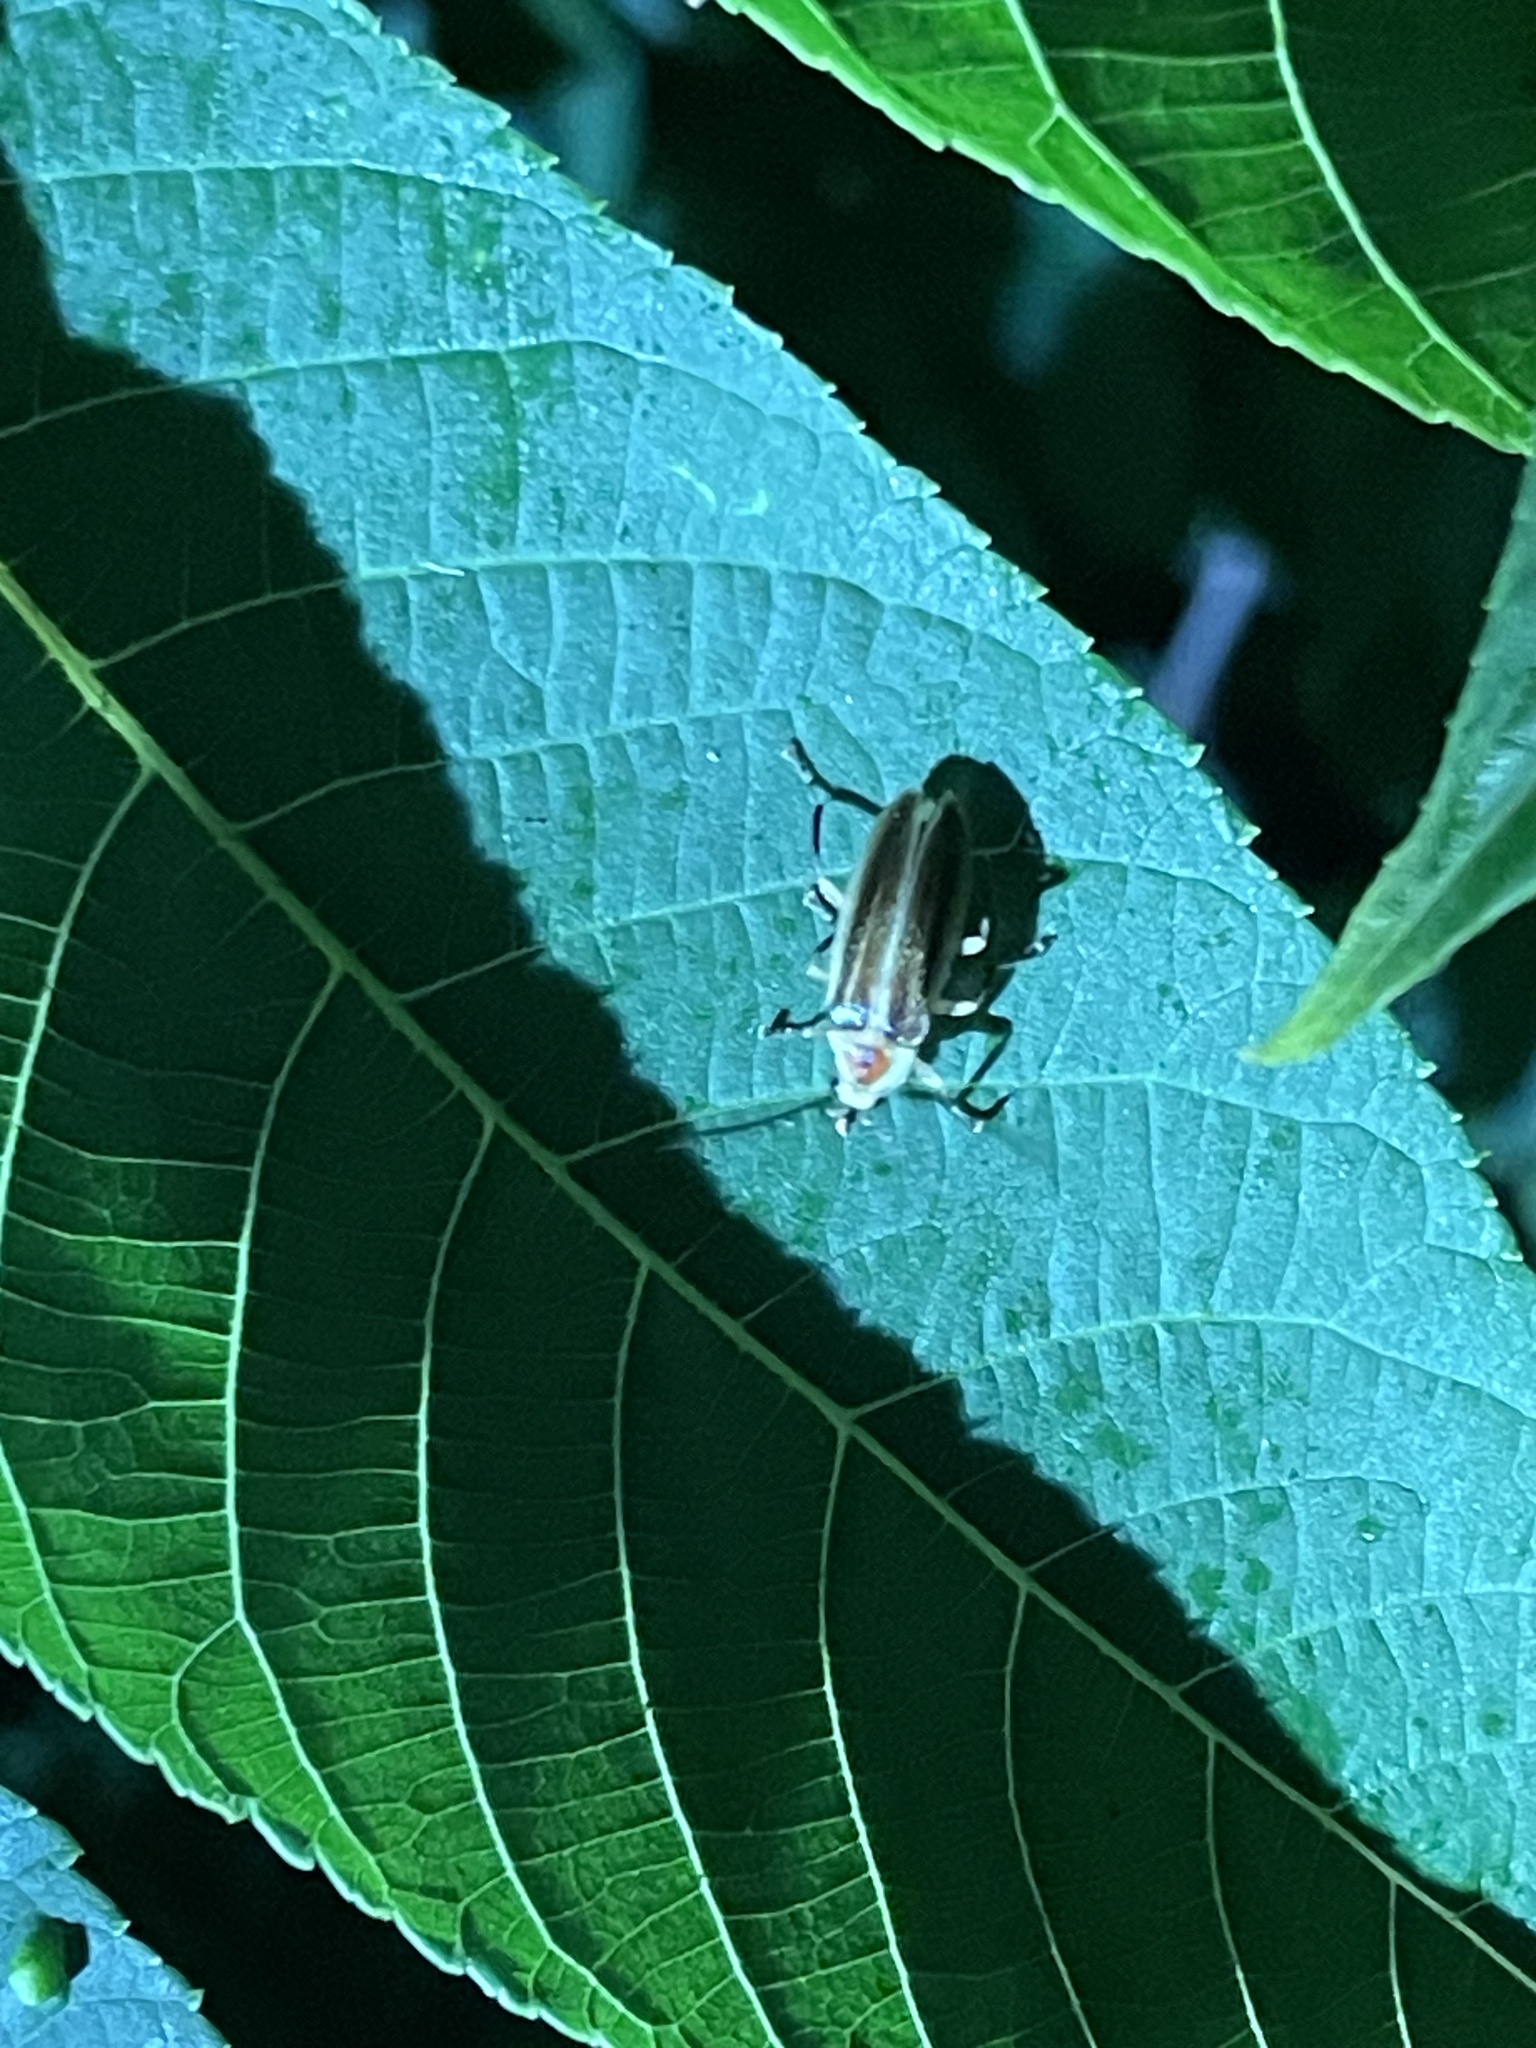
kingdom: Animalia
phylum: Arthropoda
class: Insecta
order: Coleoptera
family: Lampyridae
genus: Photuris
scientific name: Photuris
